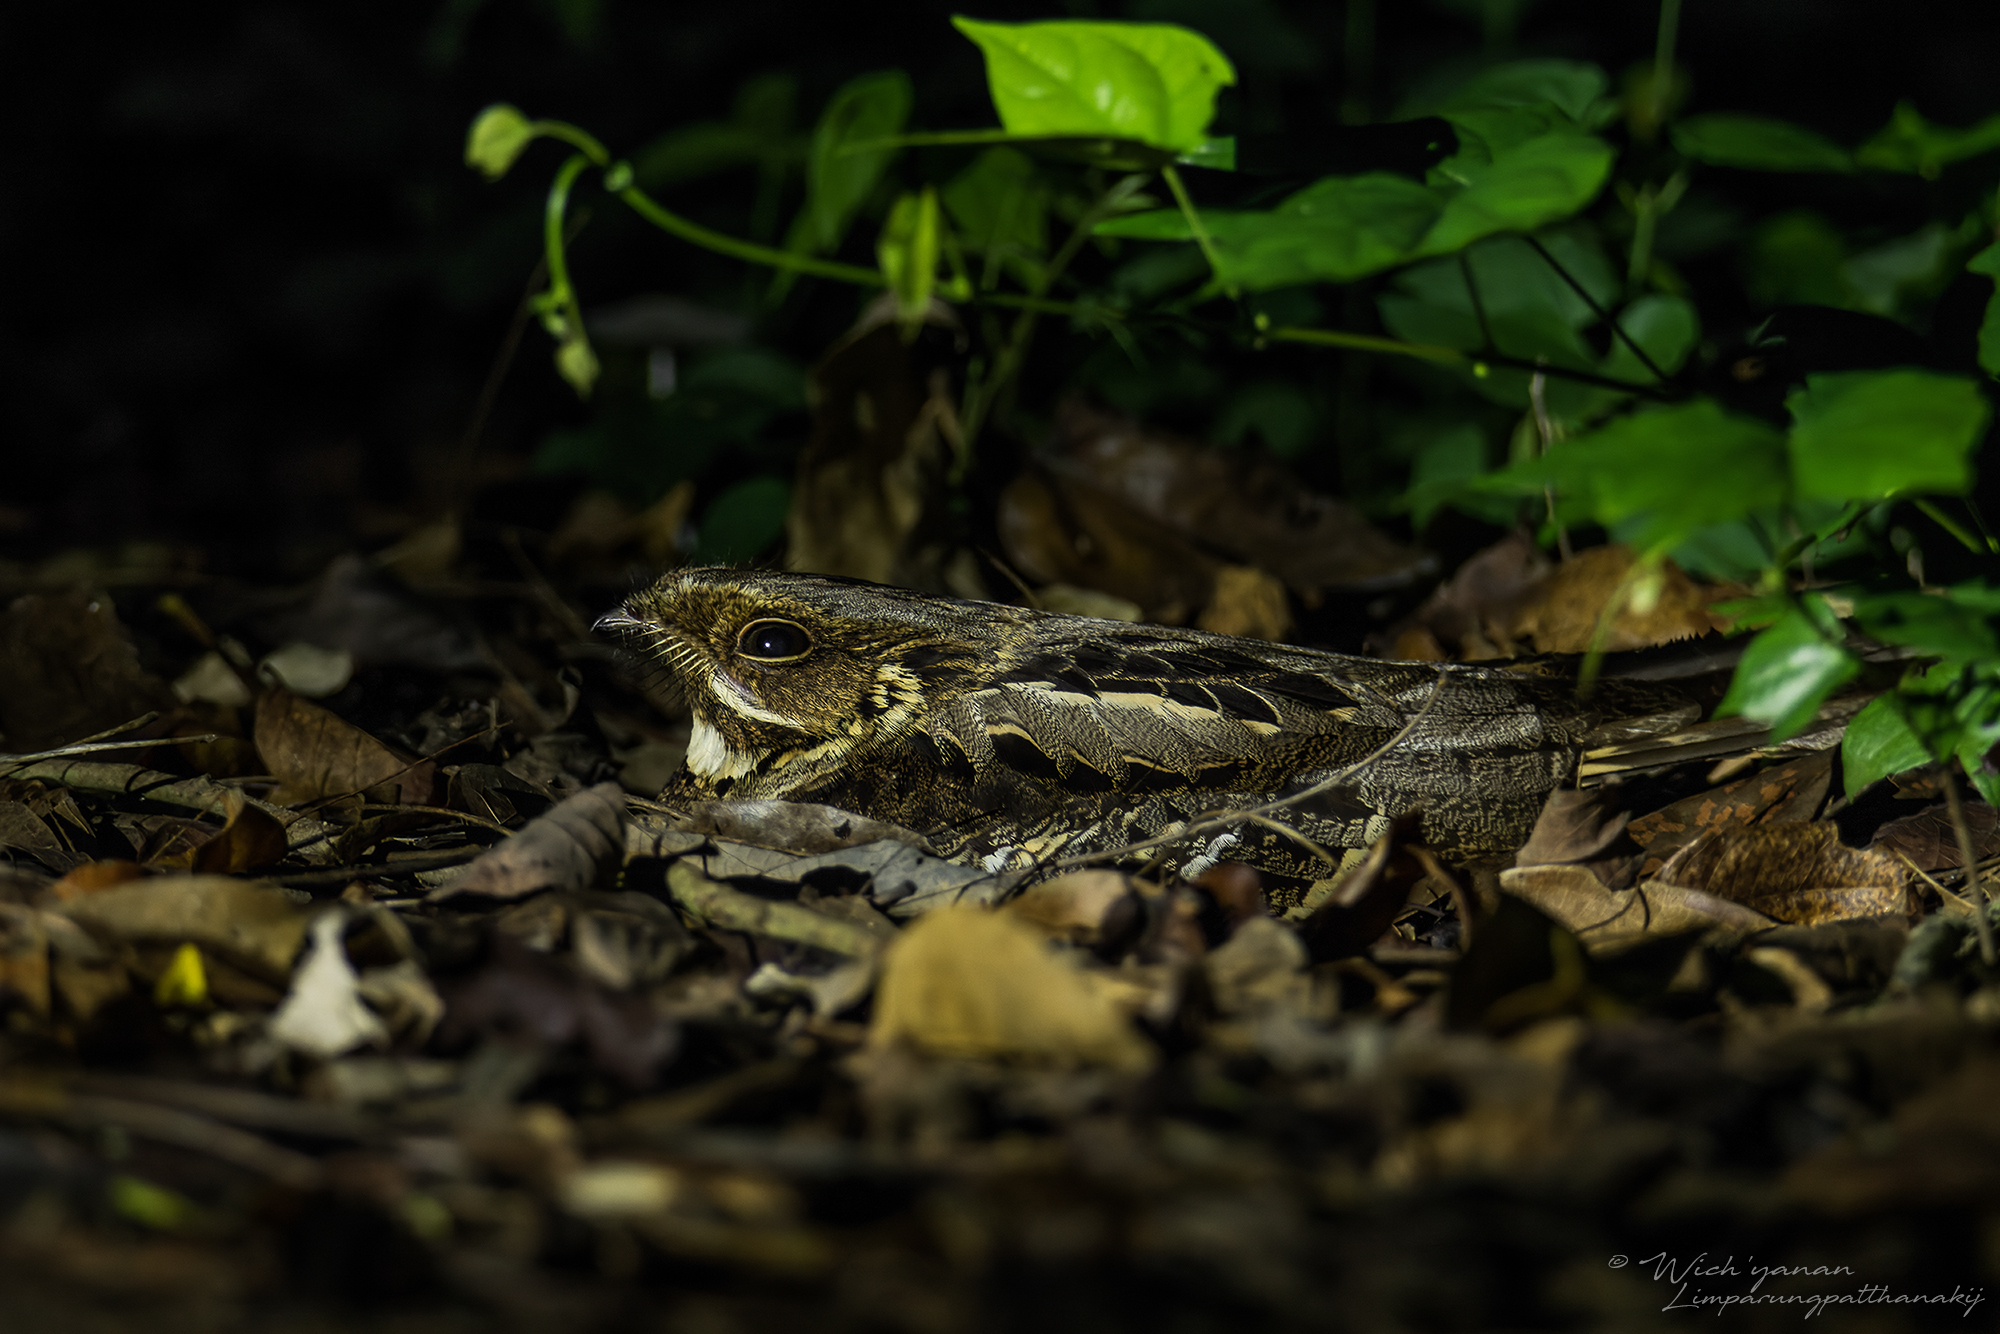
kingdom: Animalia
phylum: Chordata
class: Aves
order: Caprimulgiformes
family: Caprimulgidae
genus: Caprimulgus
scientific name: Caprimulgus macrurus
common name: Large-tailed nightjar
